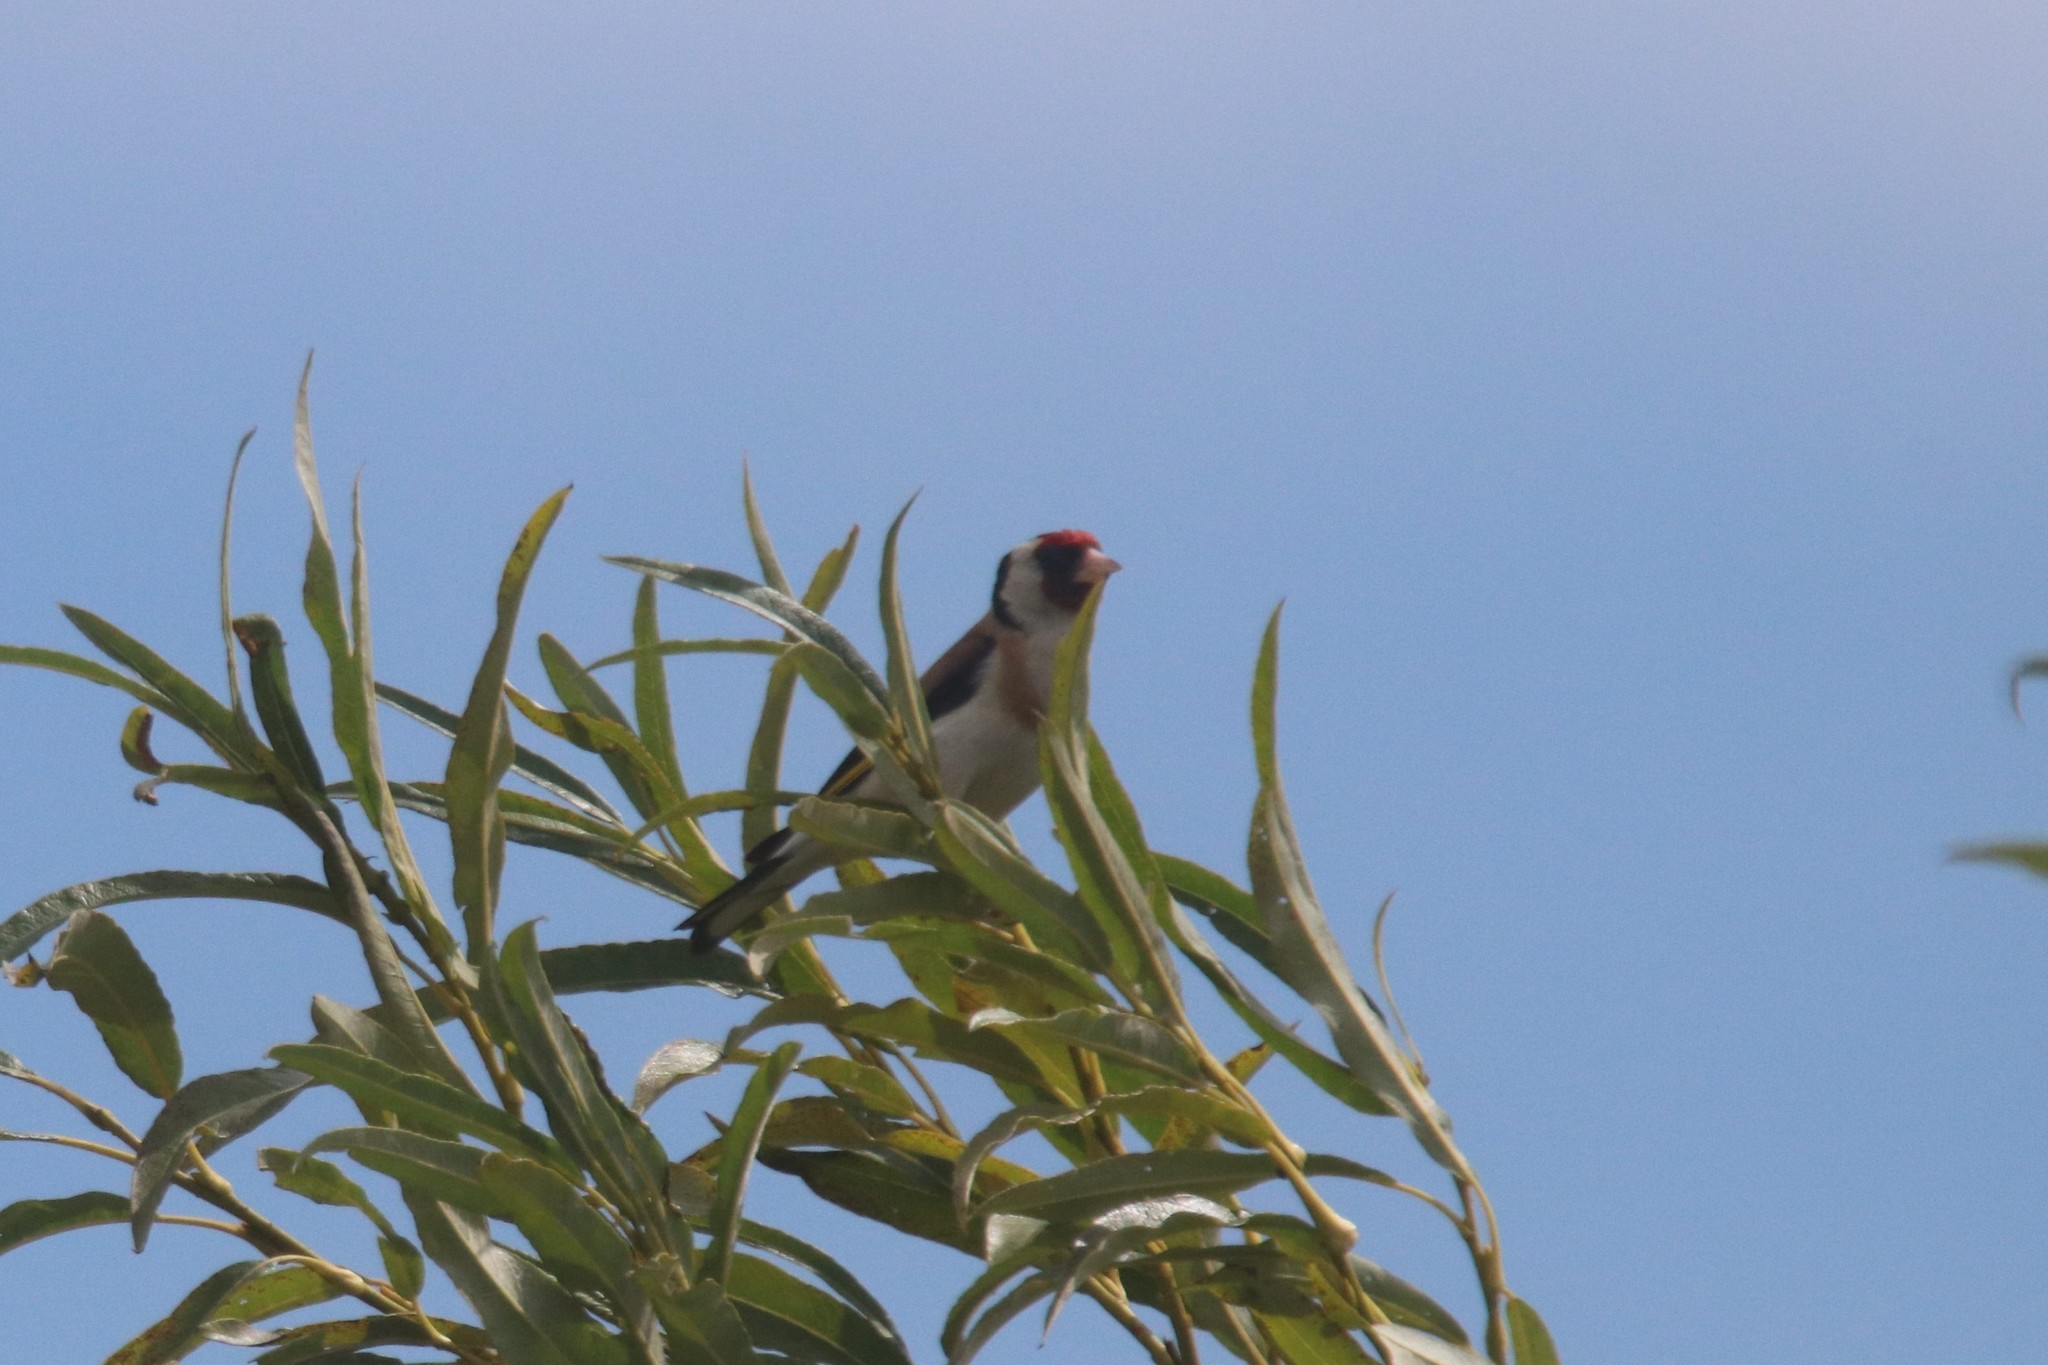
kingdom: Animalia
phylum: Chordata
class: Aves
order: Passeriformes
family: Fringillidae
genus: Carduelis
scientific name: Carduelis carduelis
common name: European goldfinch
